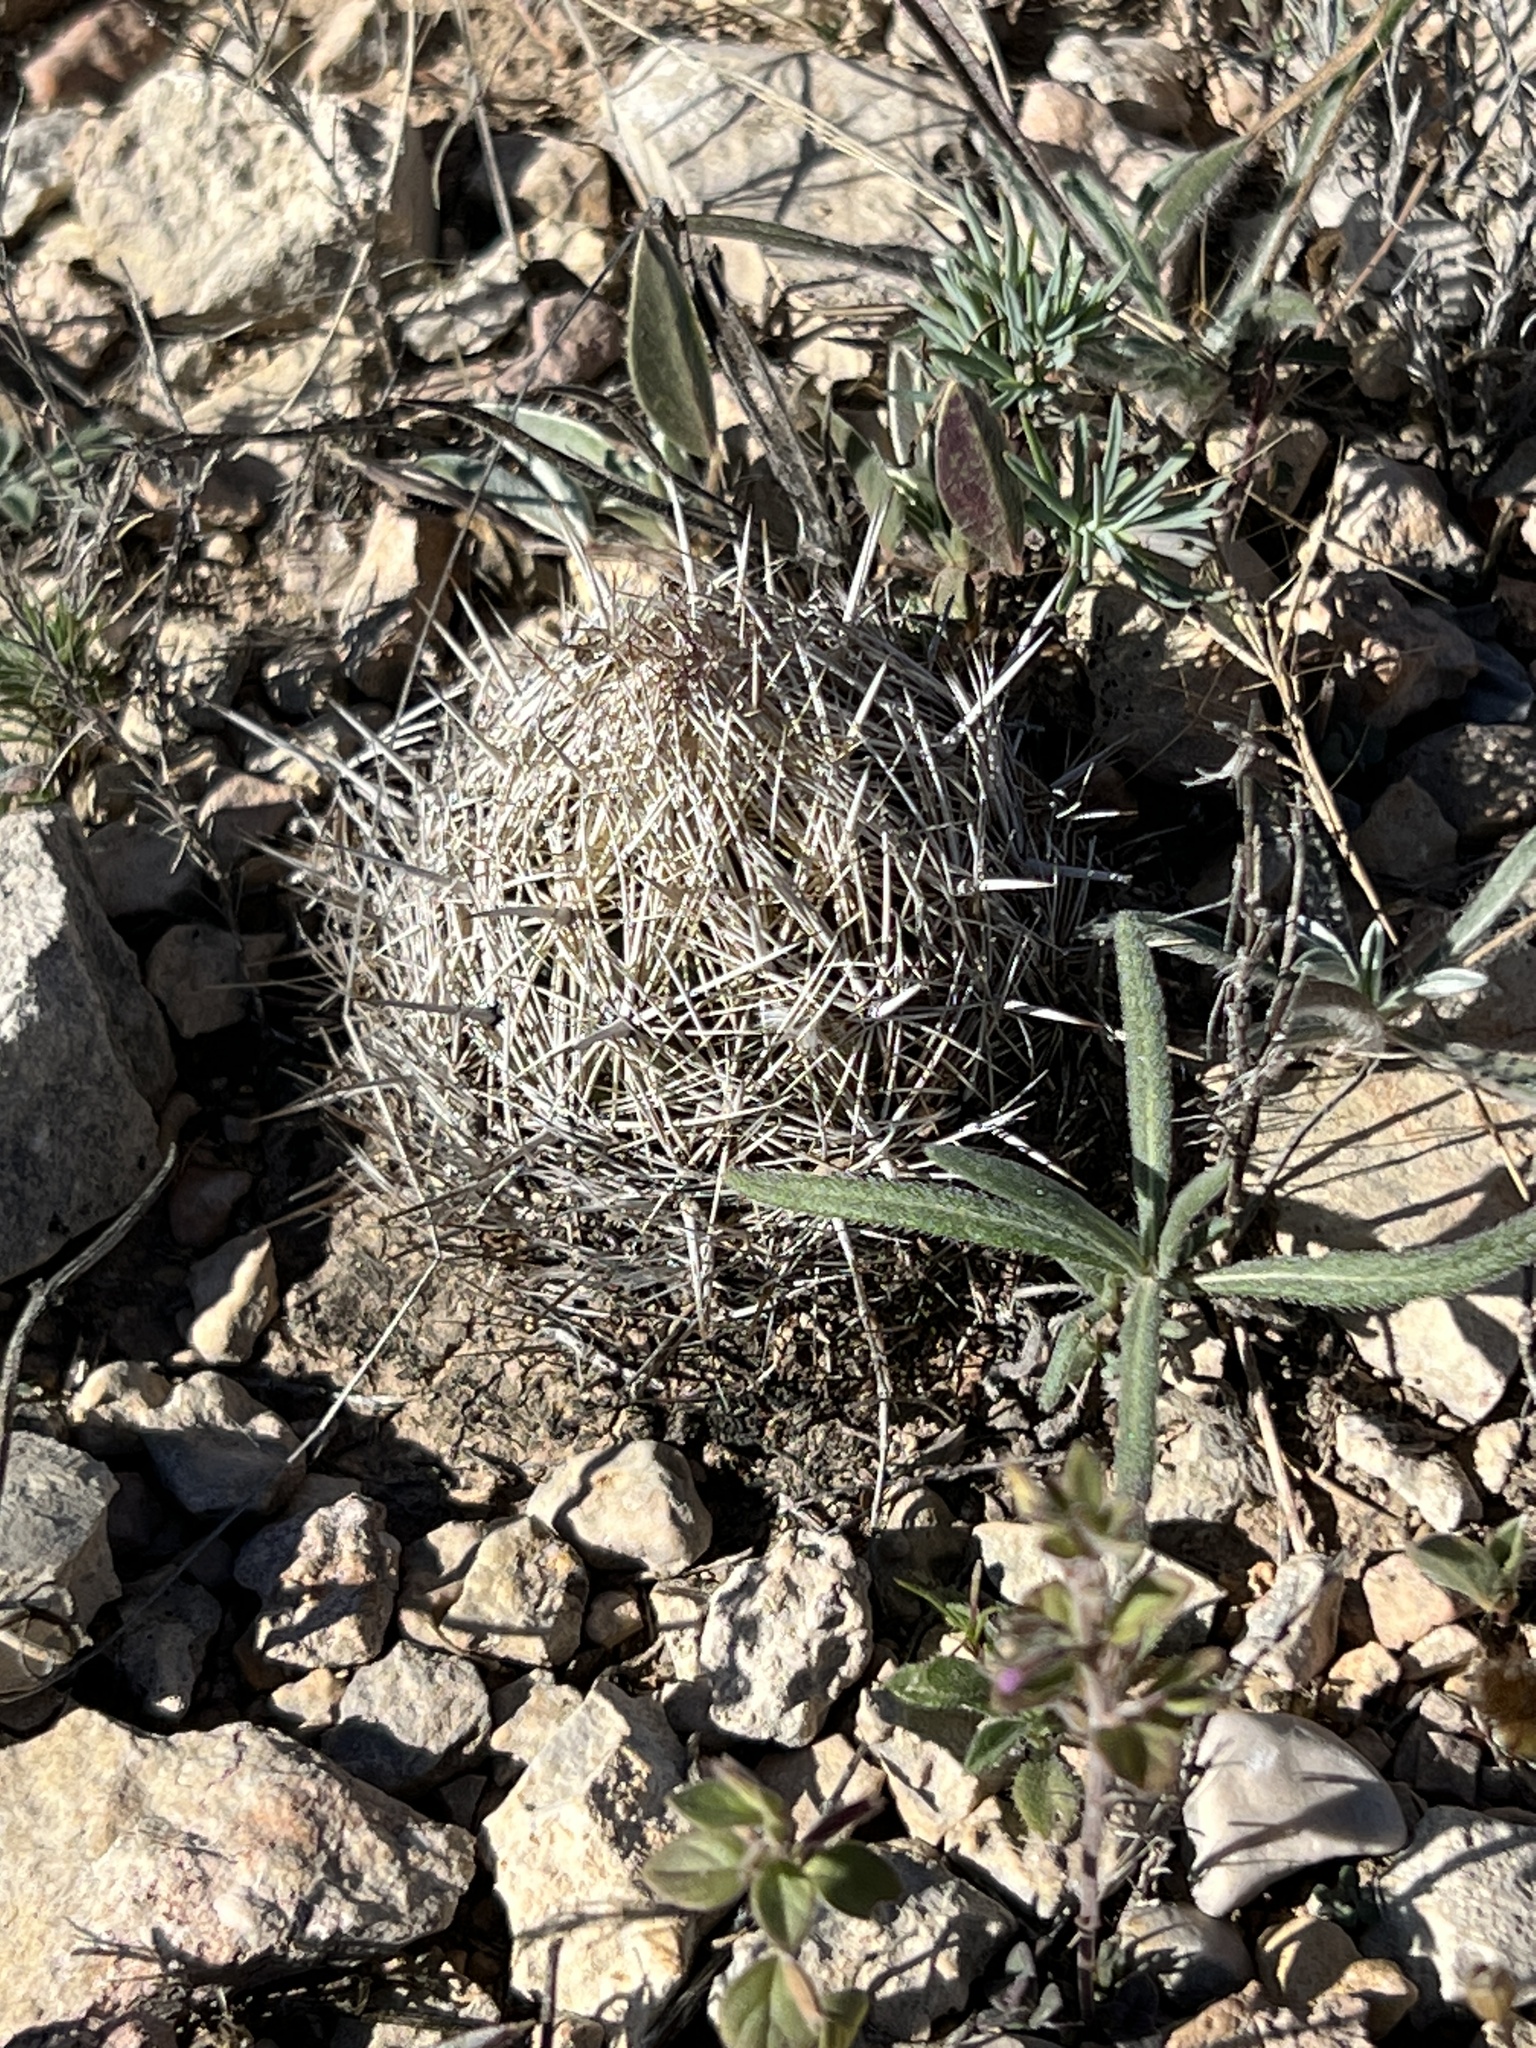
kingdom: Plantae
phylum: Tracheophyta
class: Magnoliopsida
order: Caryophyllales
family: Cactaceae
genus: Coryphantha
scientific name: Coryphantha echinus
